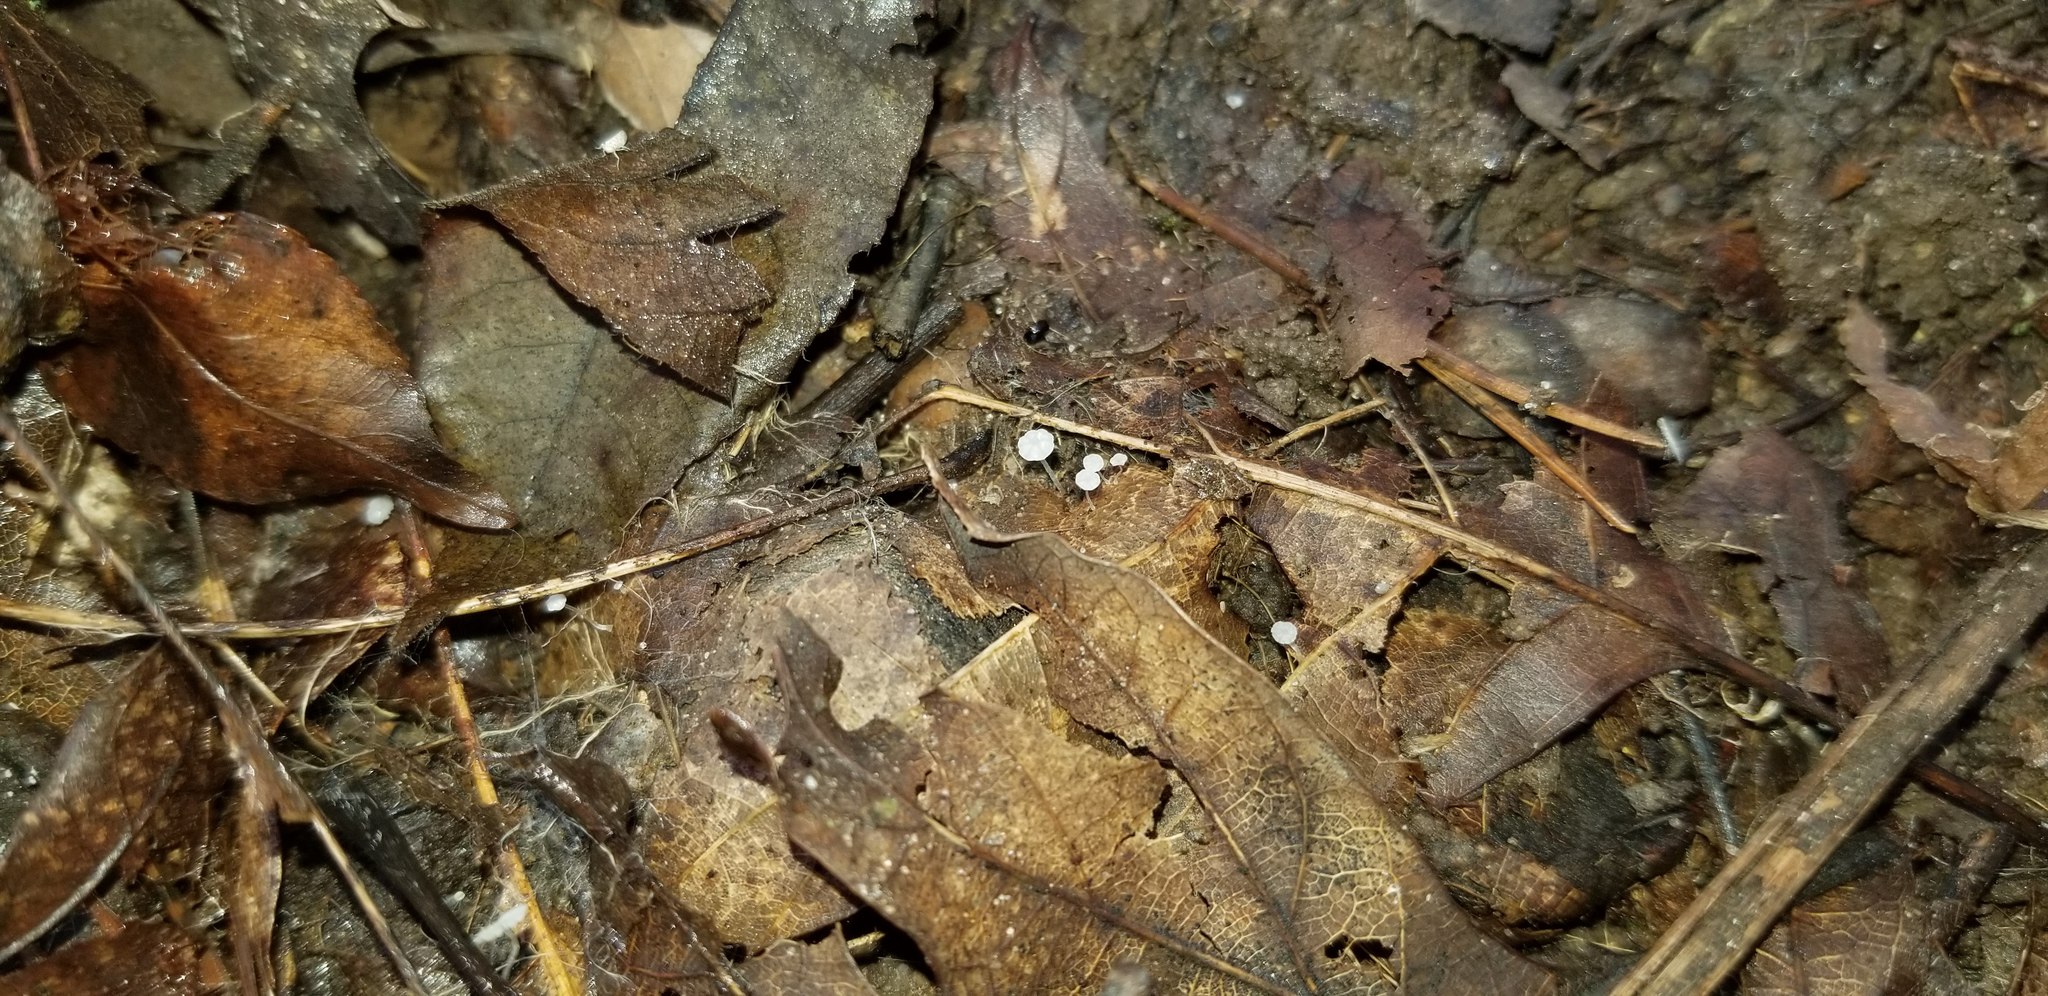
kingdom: Fungi
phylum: Basidiomycota
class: Agaricomycetes
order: Agaricales
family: Mycenaceae
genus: Mycena
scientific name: Mycena mucor
